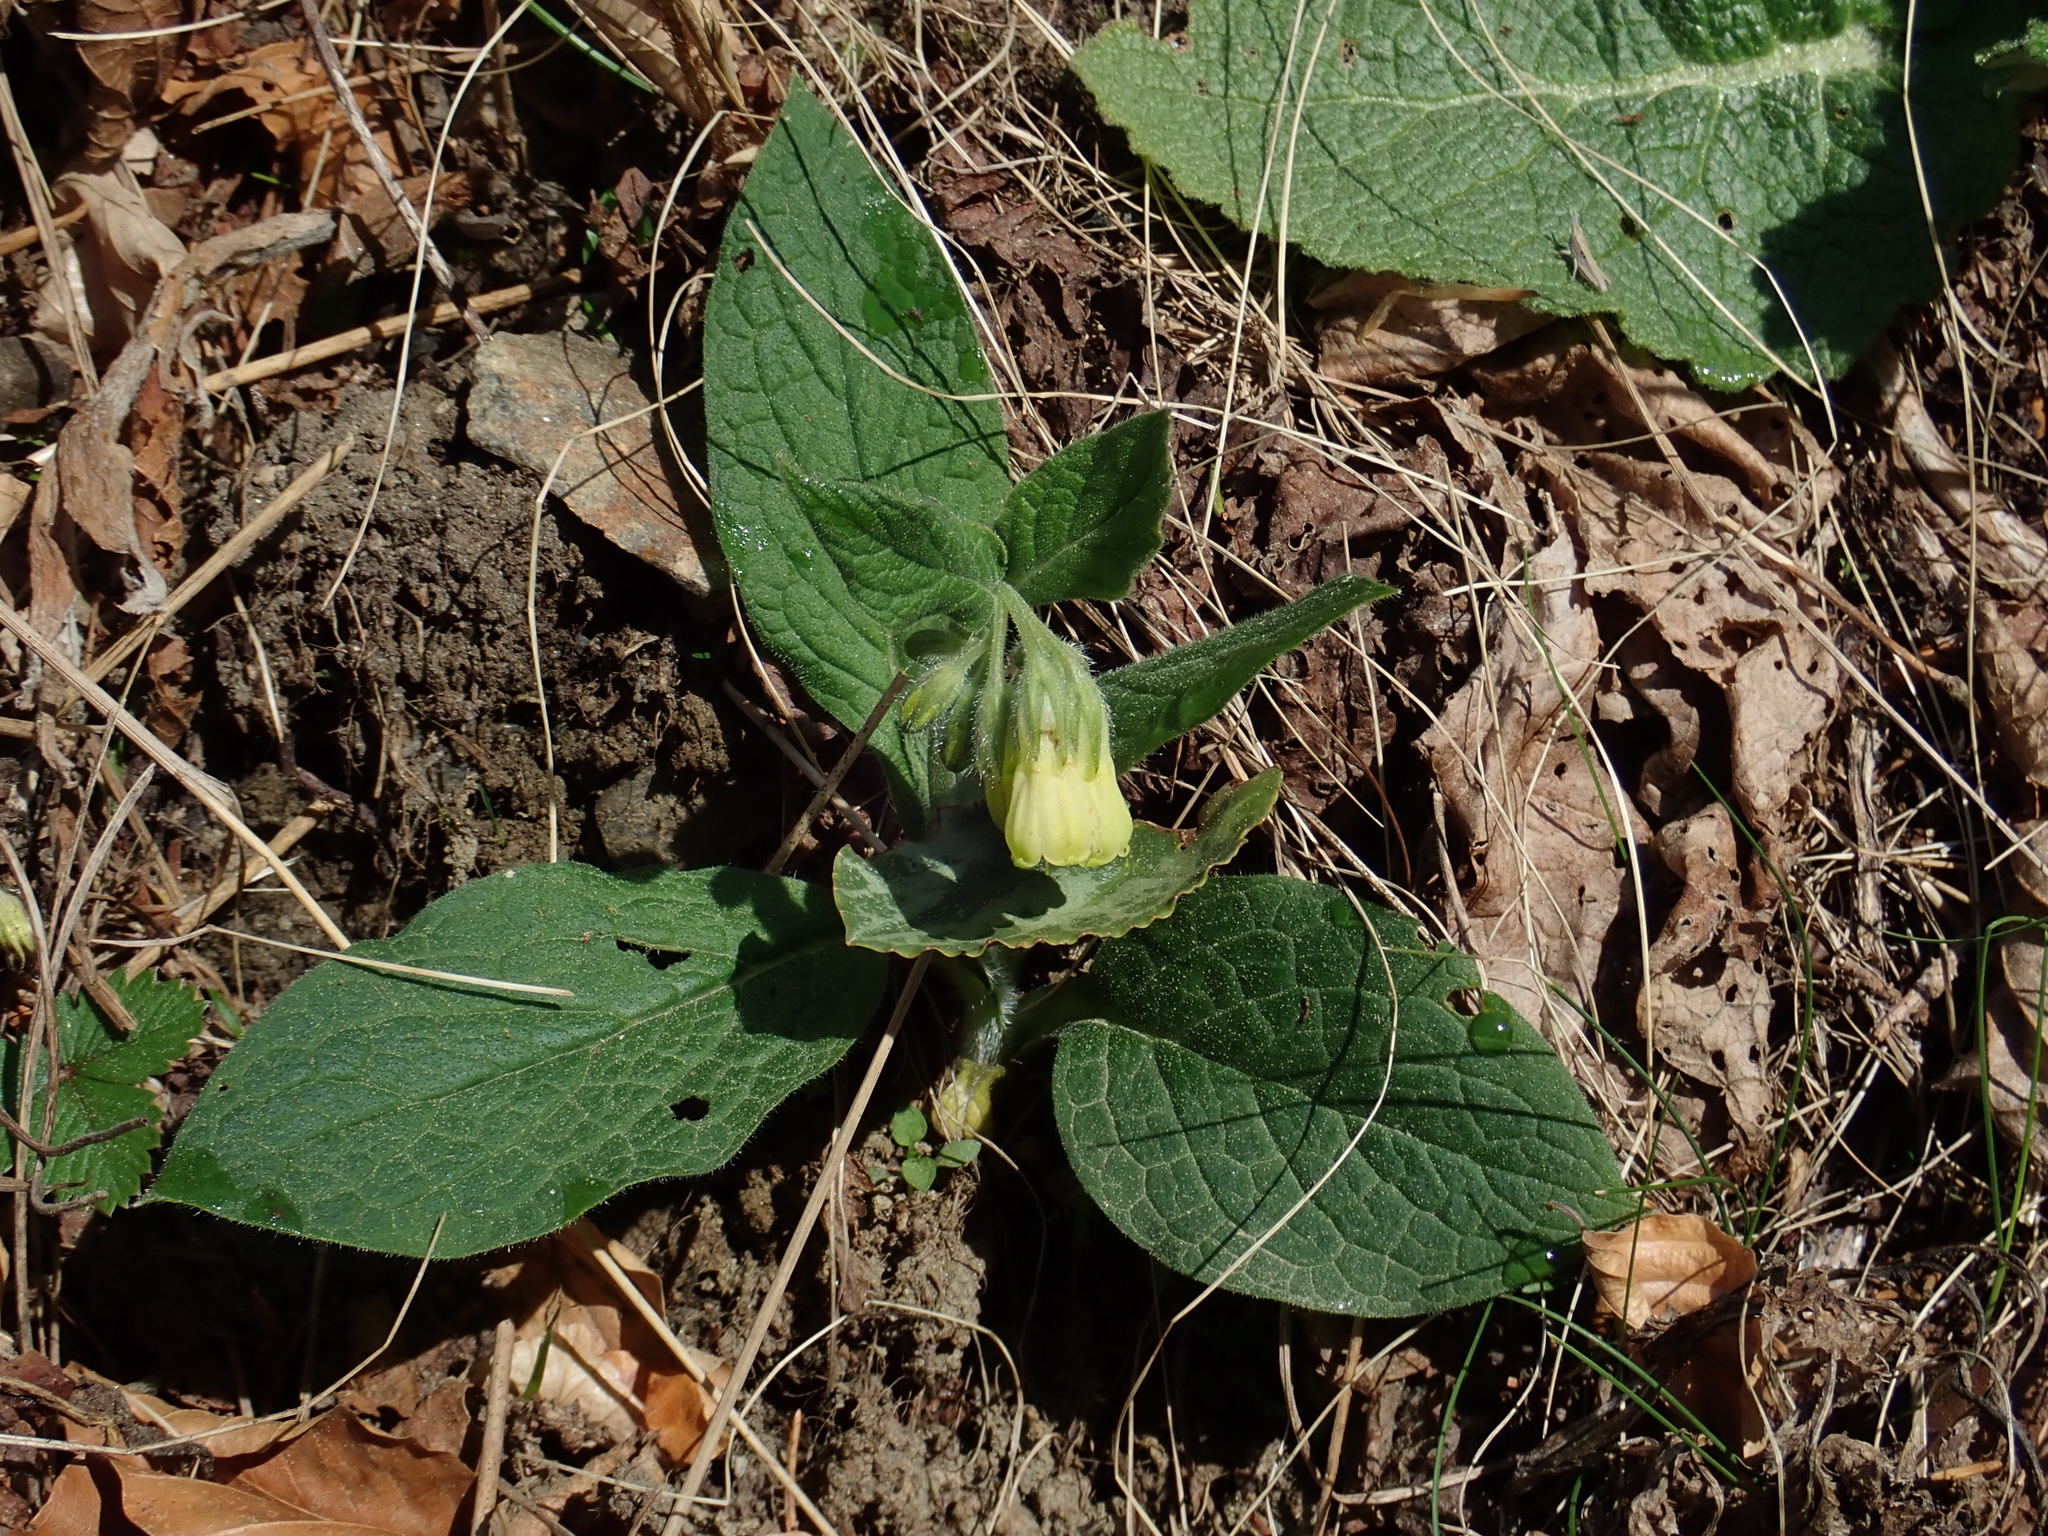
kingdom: Plantae
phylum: Tracheophyta
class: Magnoliopsida
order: Boraginales
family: Boraginaceae
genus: Symphytum
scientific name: Symphytum tuberosum
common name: Tuberous comfrey
